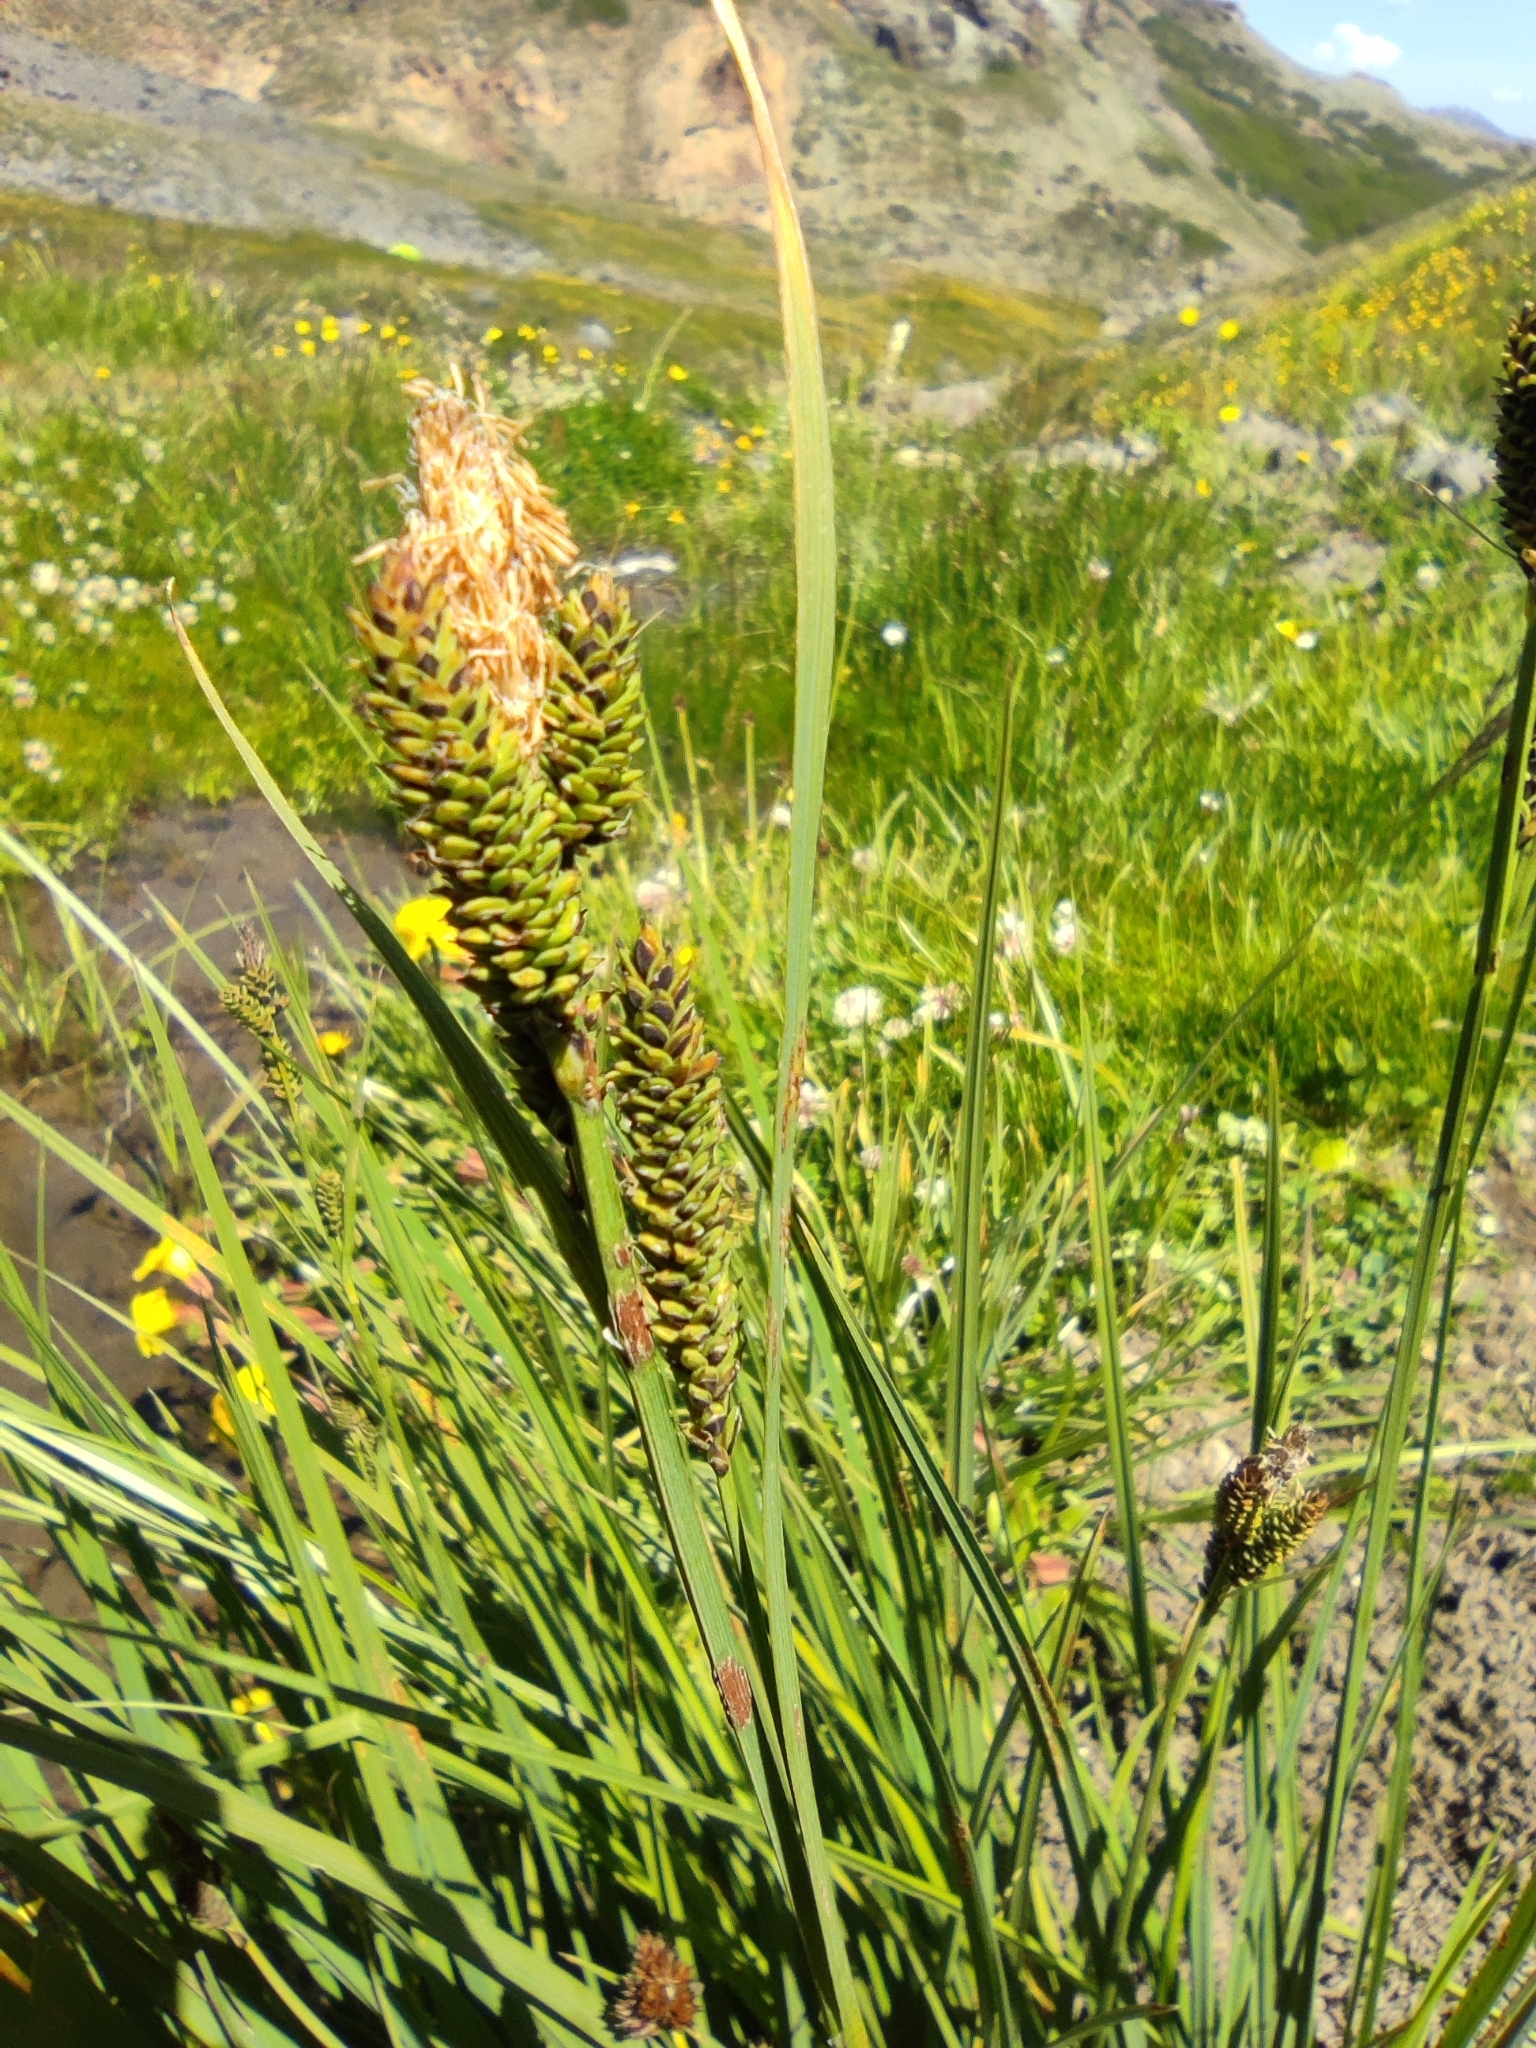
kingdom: Plantae
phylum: Tracheophyta
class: Liliopsida
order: Poales
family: Cyperaceae
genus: Carex
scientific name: Carex chillanensis
